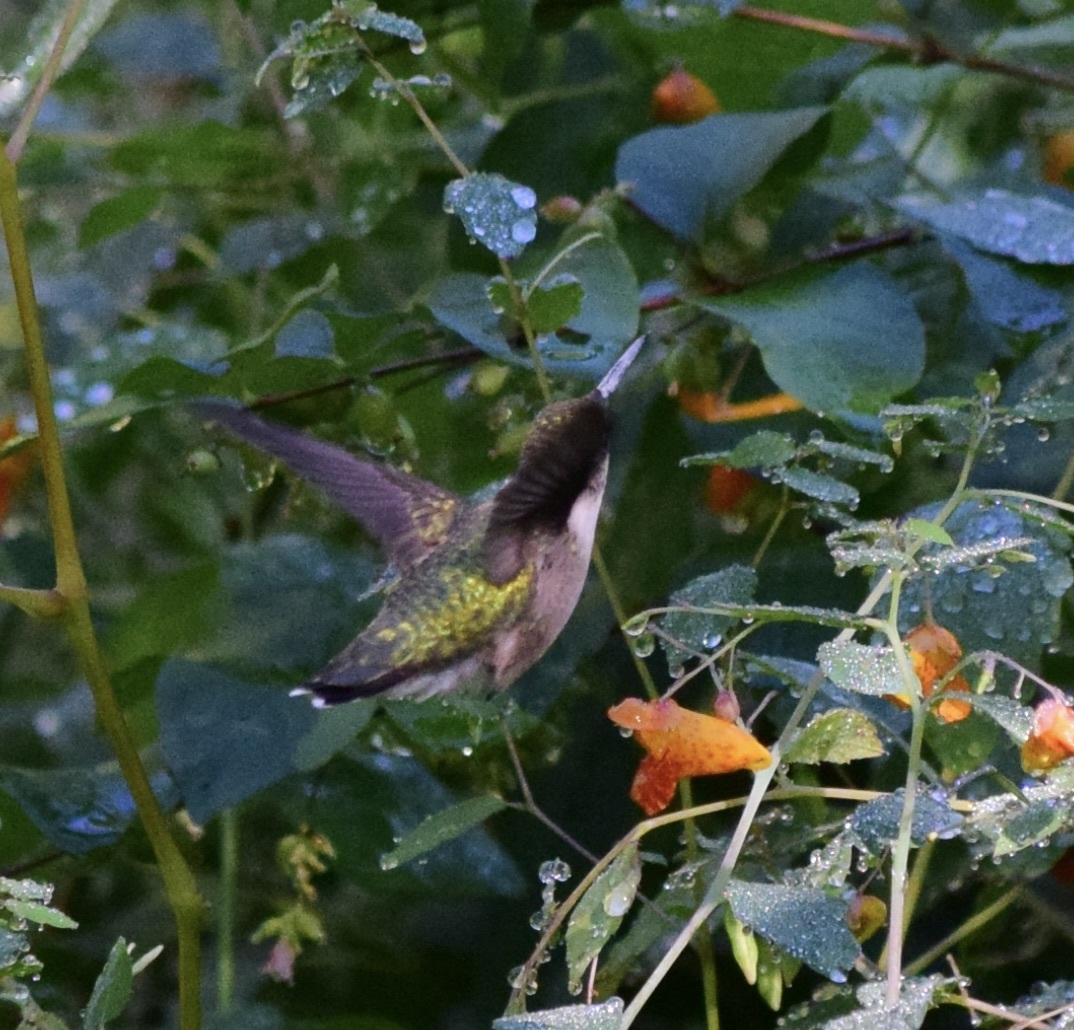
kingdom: Animalia
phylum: Chordata
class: Aves
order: Apodiformes
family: Trochilidae
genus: Archilochus
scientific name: Archilochus colubris
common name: Ruby-throated hummingbird
